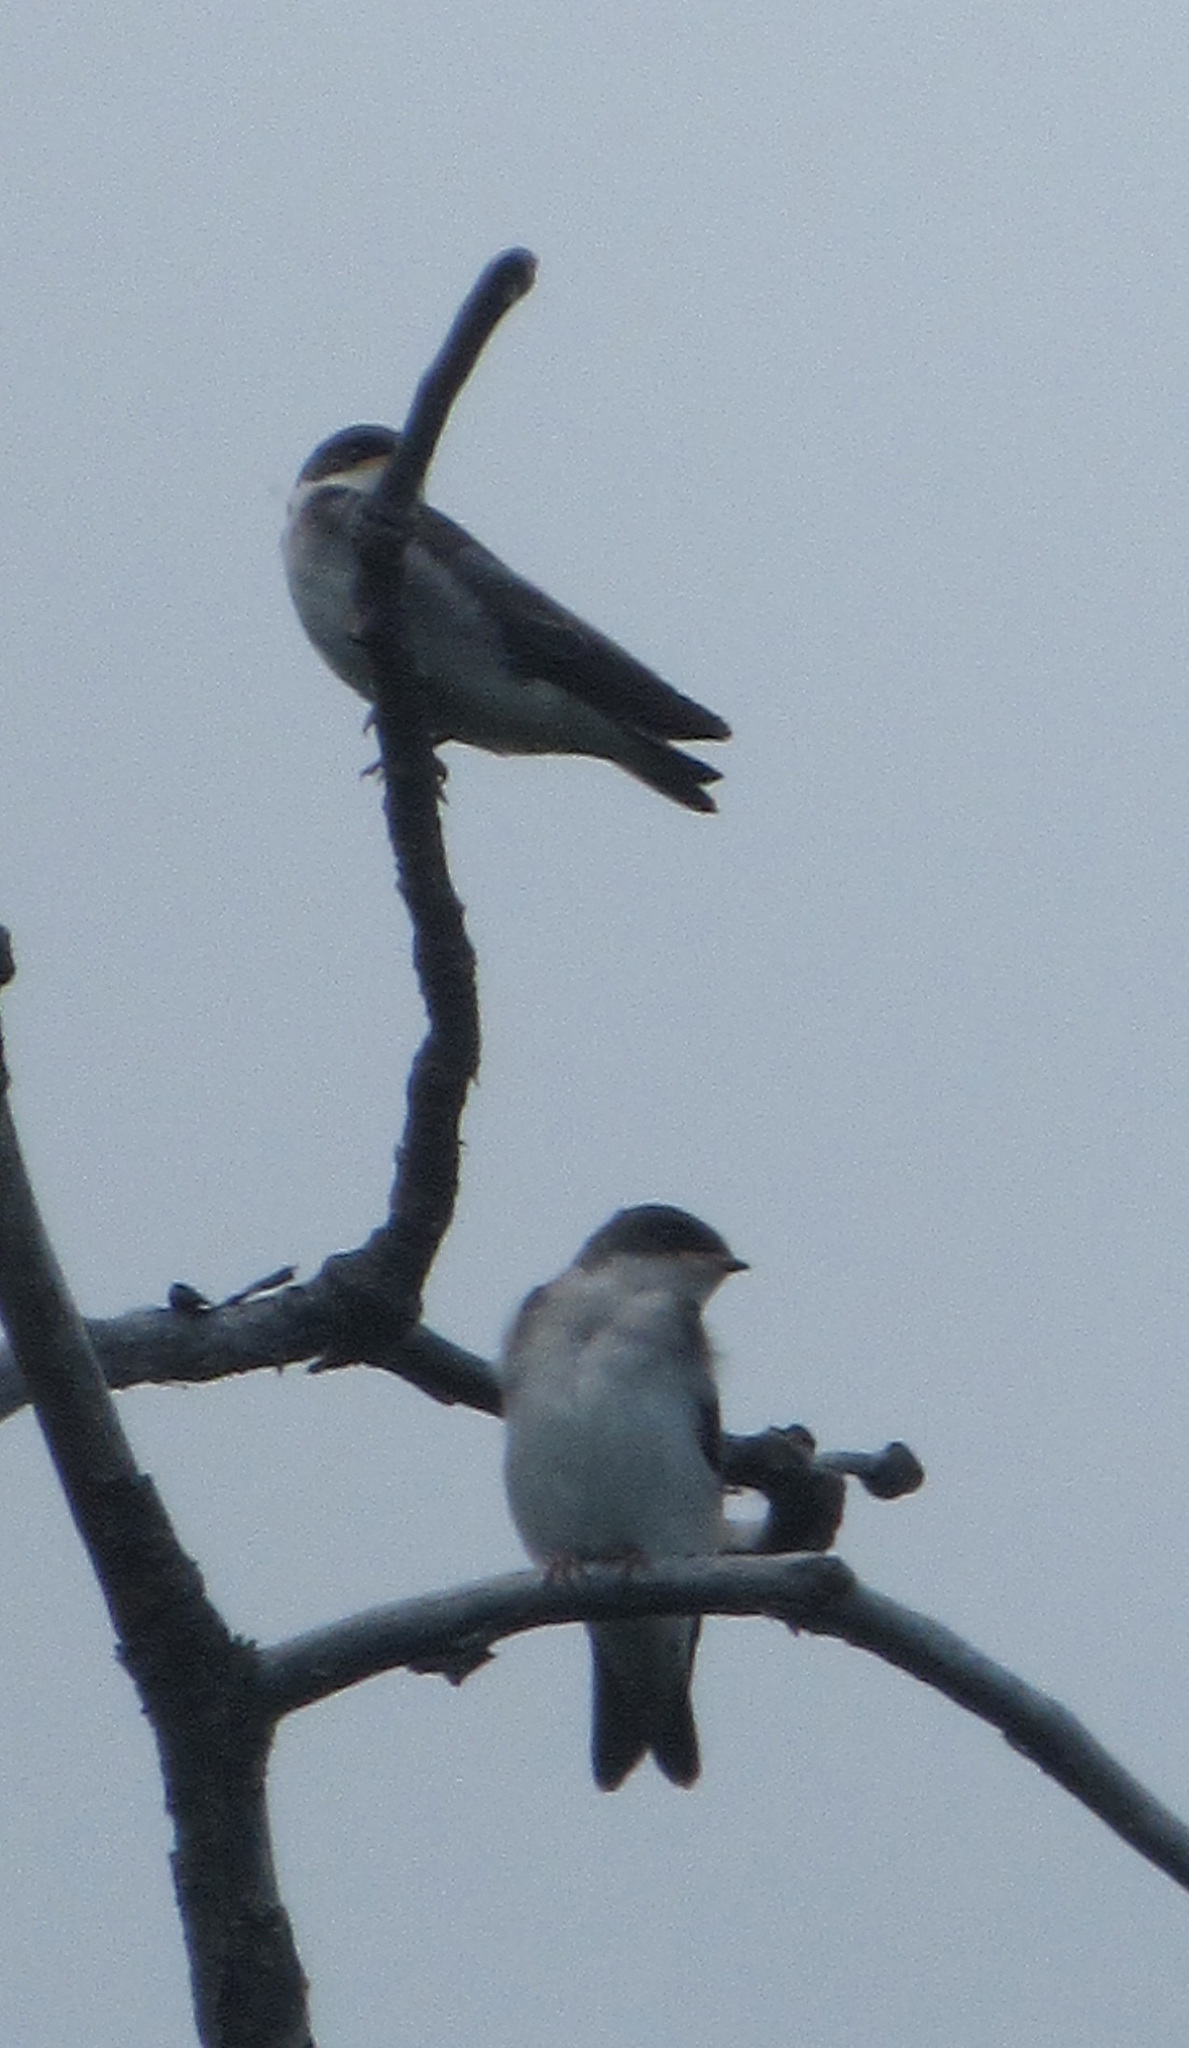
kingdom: Animalia
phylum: Chordata
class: Aves
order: Passeriformes
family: Hirundinidae
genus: Tachycineta
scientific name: Tachycineta bicolor
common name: Tree swallow
